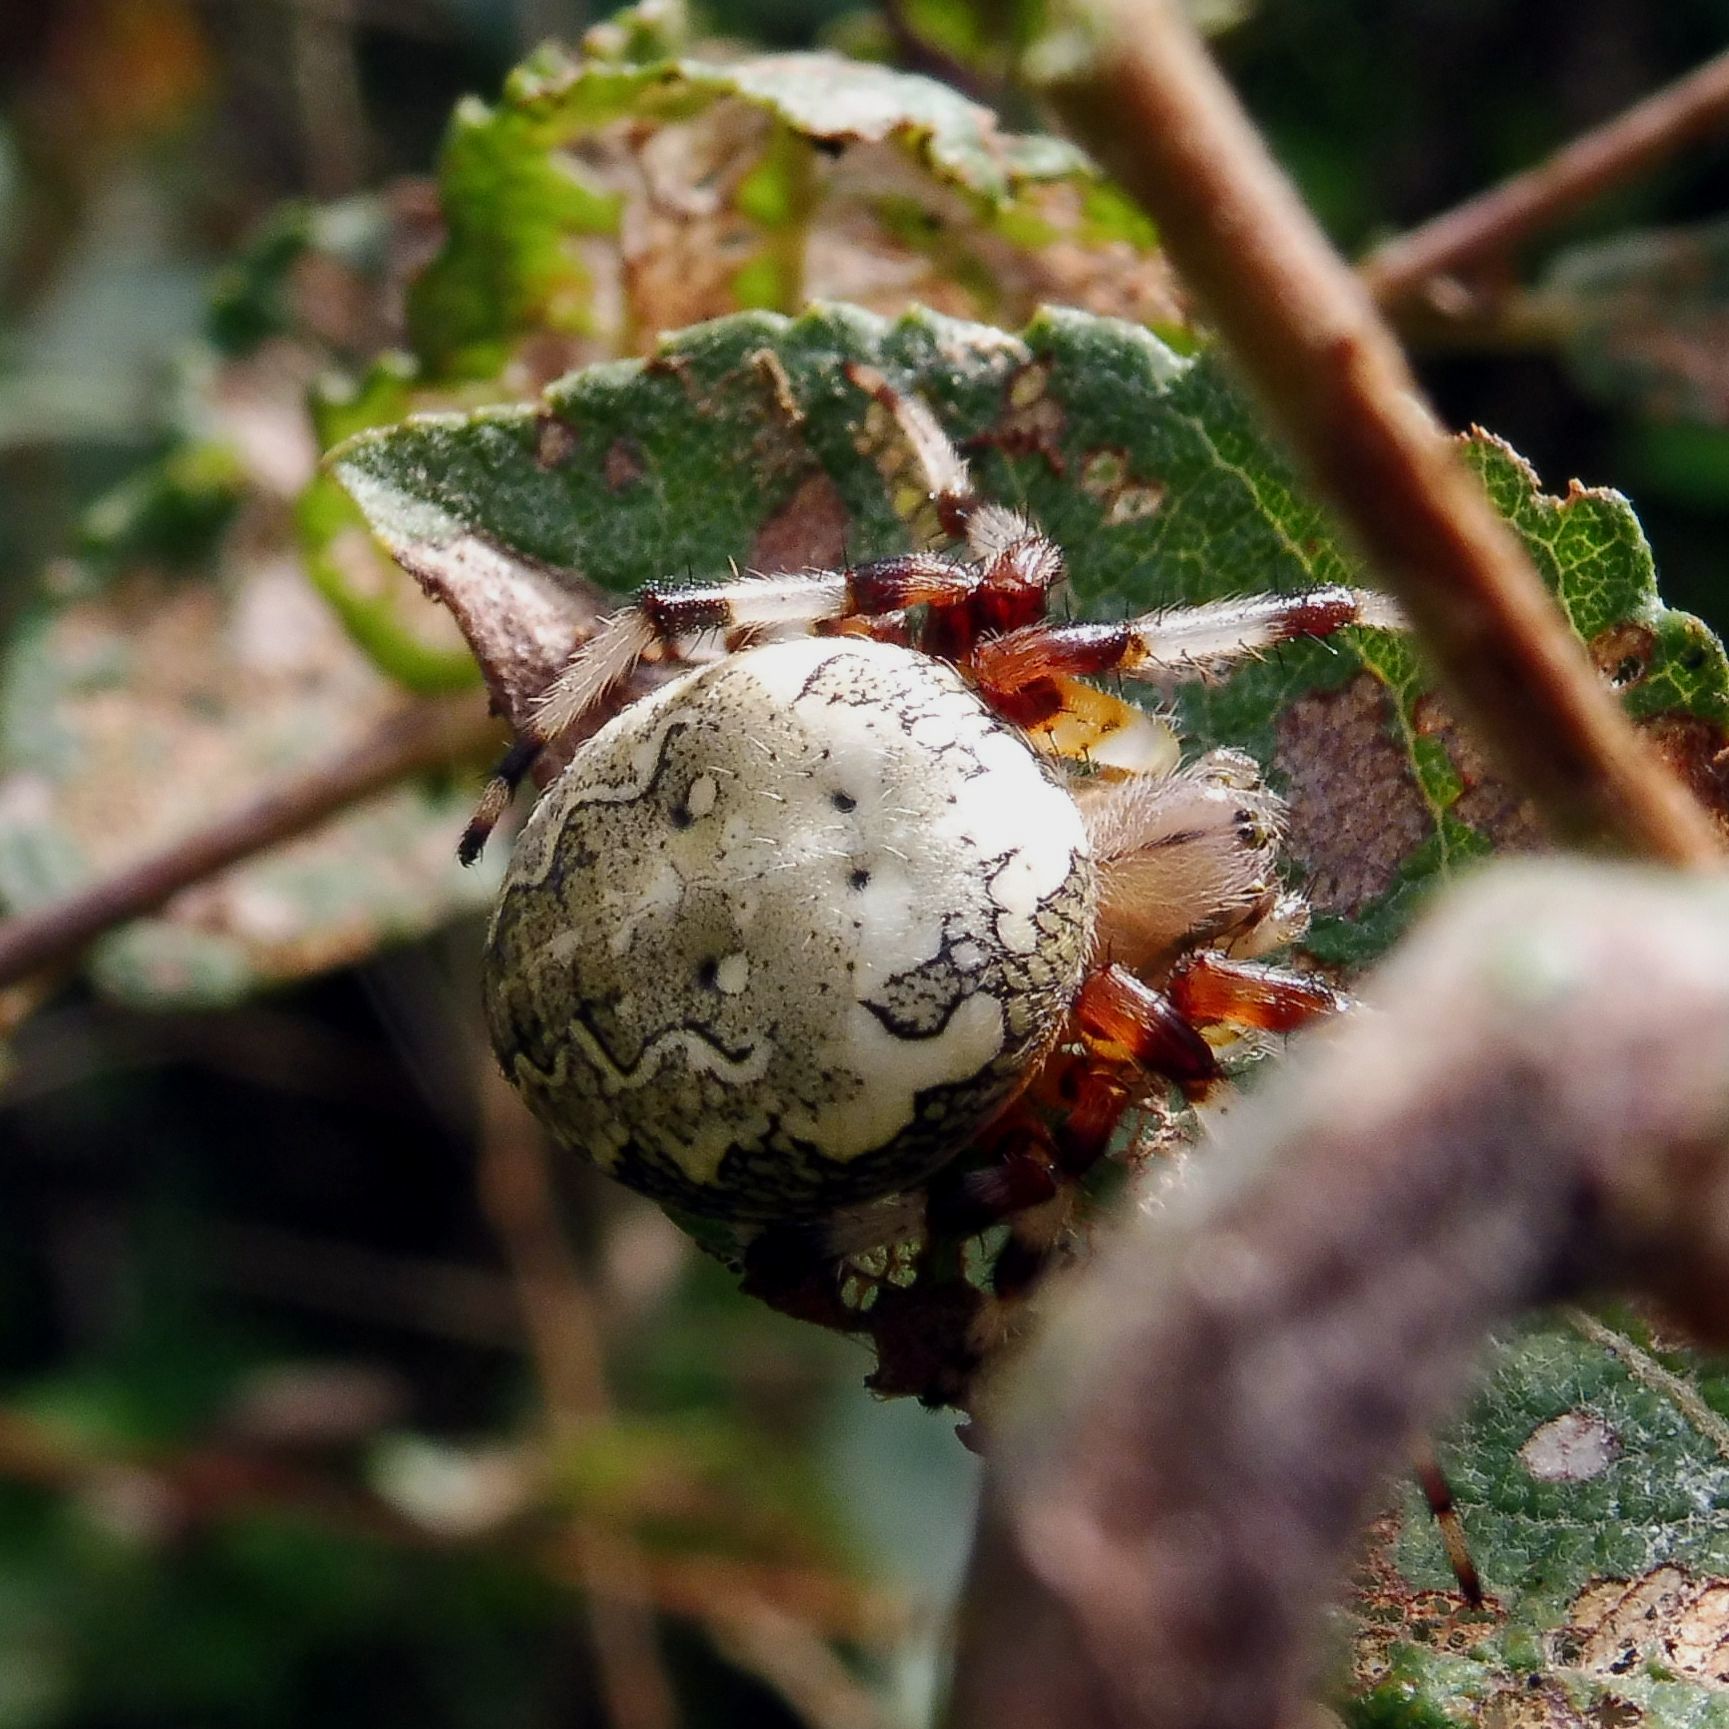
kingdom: Animalia
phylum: Arthropoda
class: Arachnida
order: Araneae
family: Araneidae
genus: Araneus
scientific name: Araneus marmoreus
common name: Marbled orbweaver
